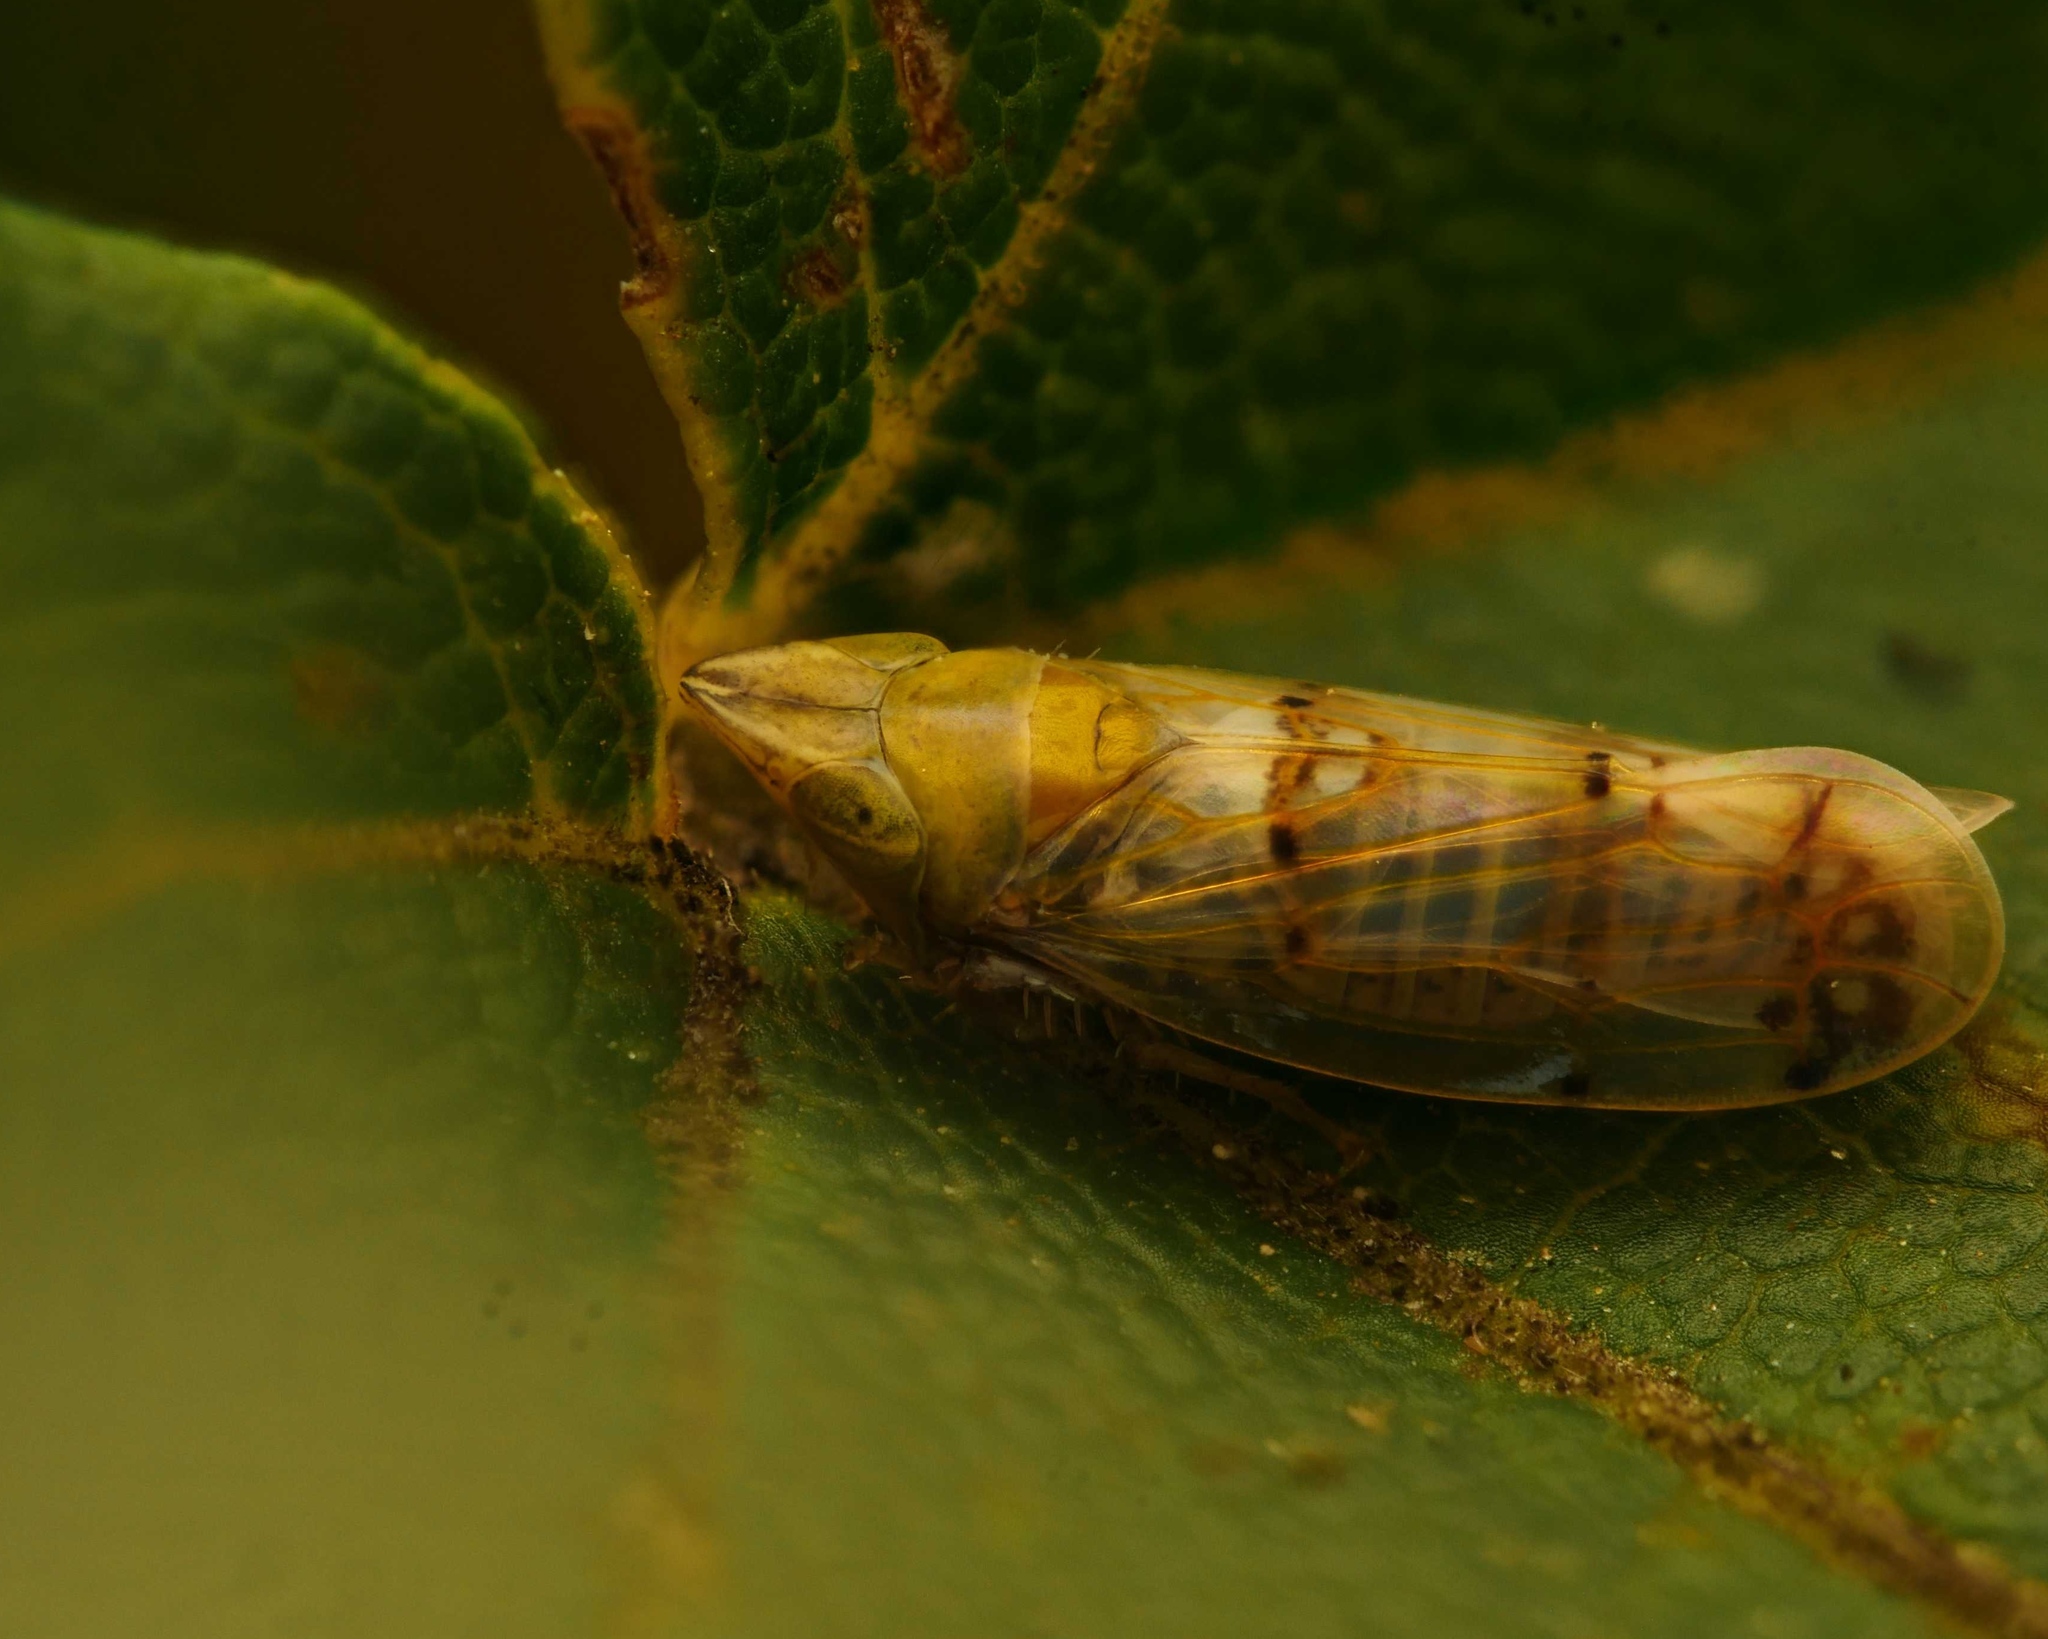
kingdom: Animalia
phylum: Arthropoda
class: Insecta
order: Hemiptera
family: Cicadellidae
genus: Japananus
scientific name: Japananus hyalinus
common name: The japanese maple leafhopper
